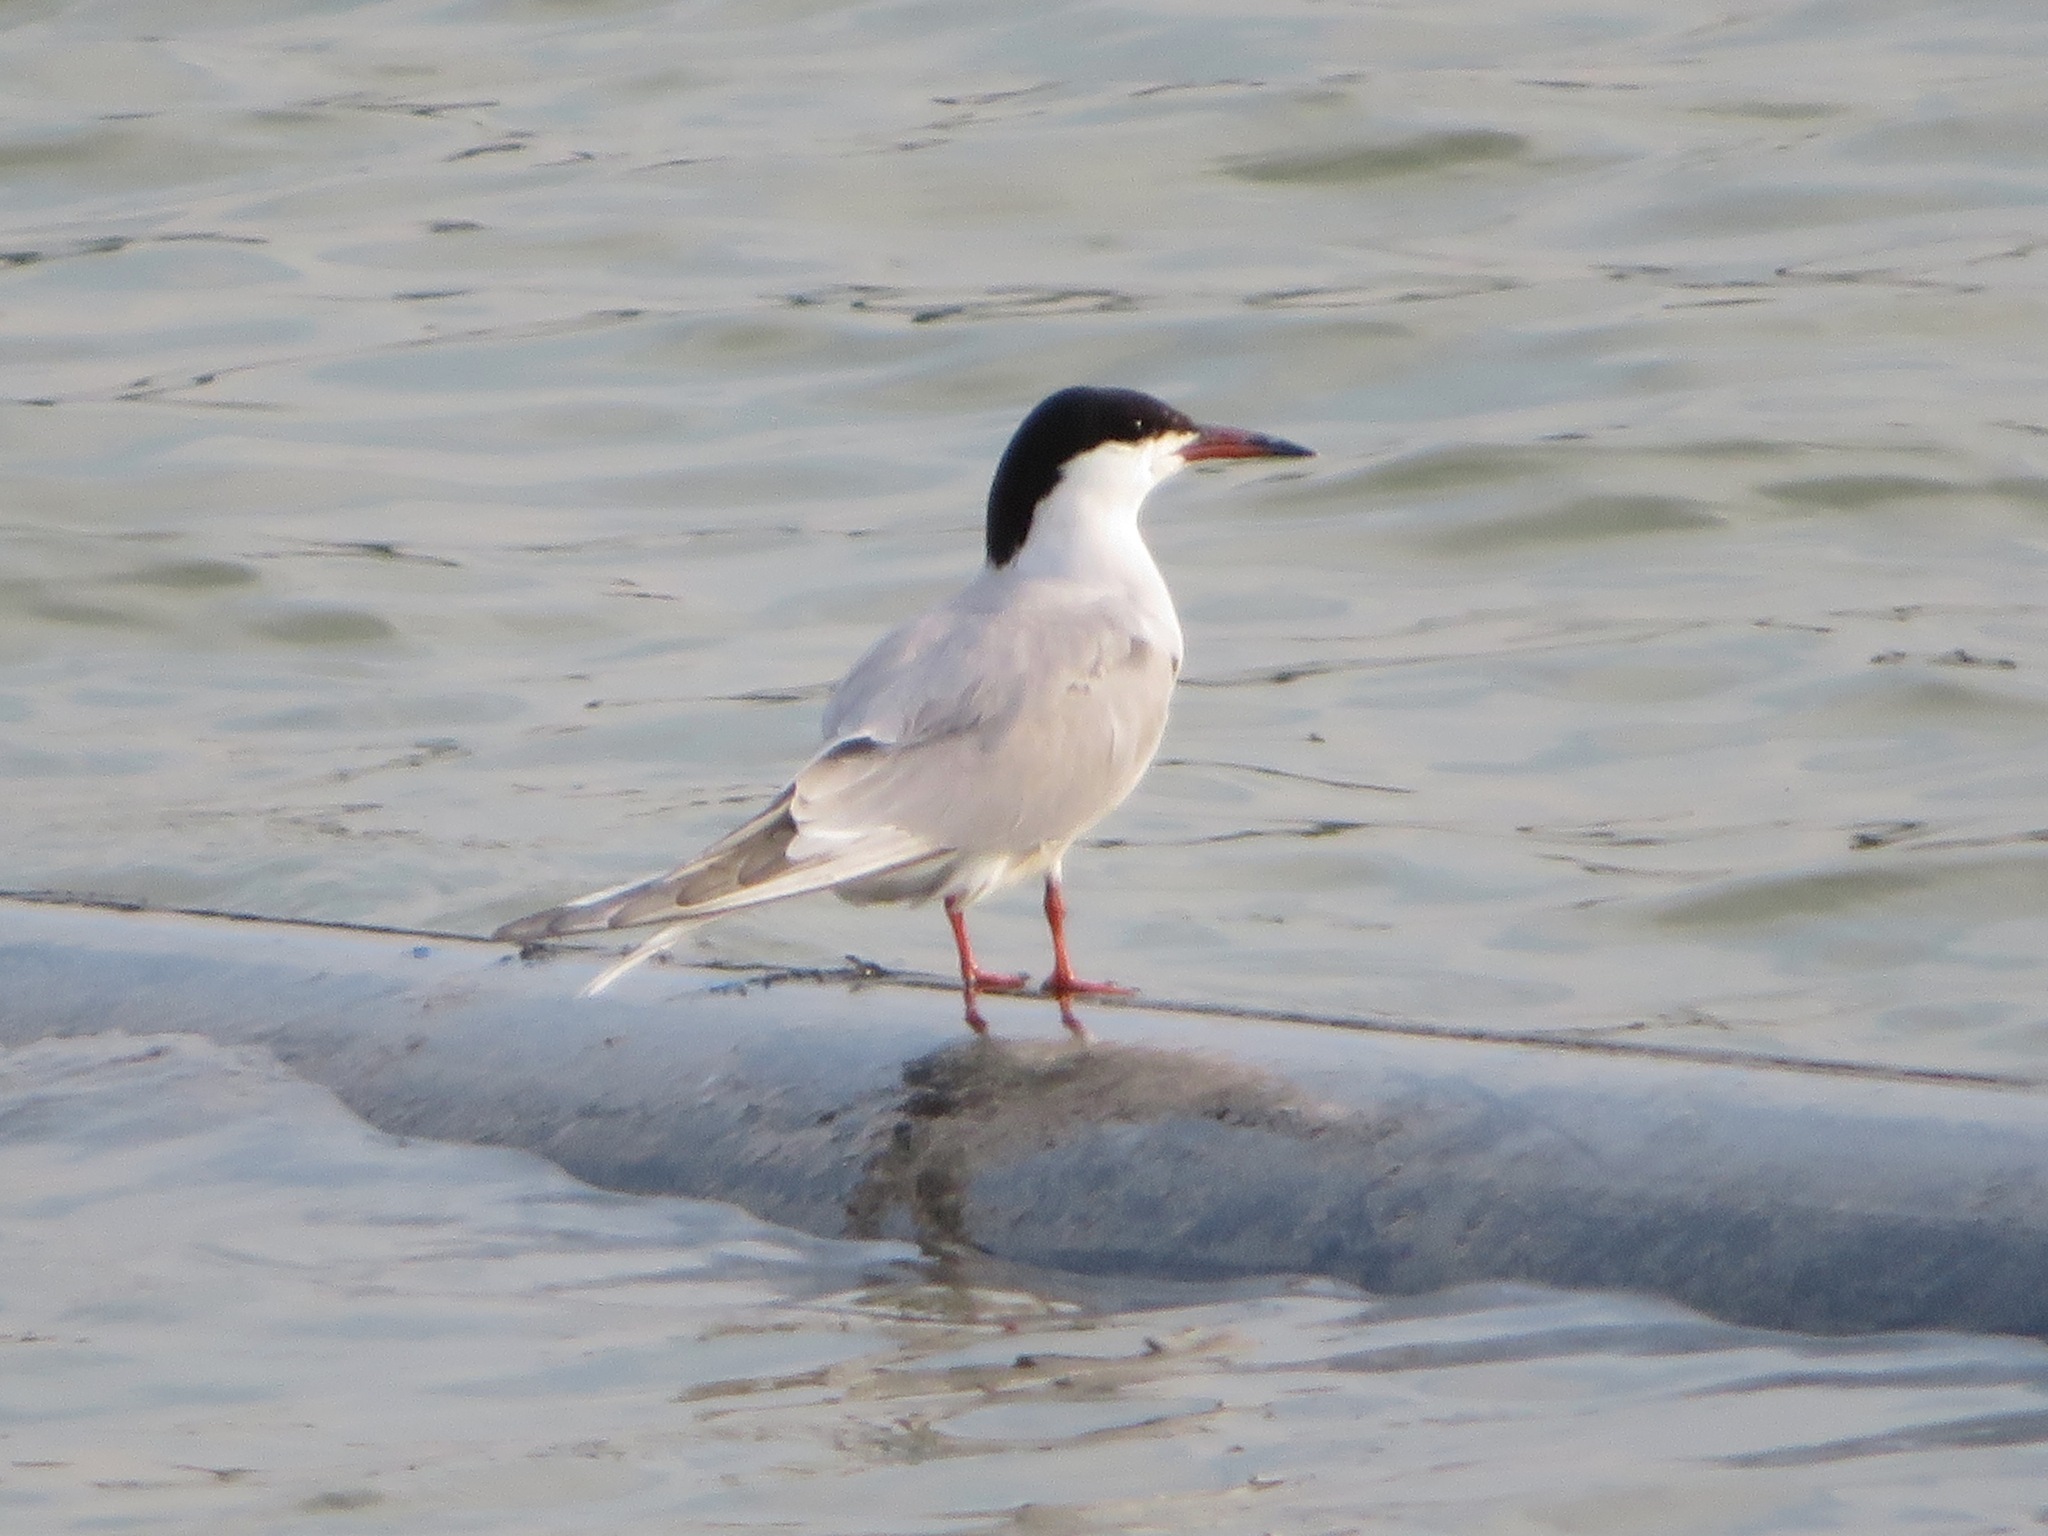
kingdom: Animalia
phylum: Chordata
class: Aves
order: Charadriiformes
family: Laridae
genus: Sterna
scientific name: Sterna hirundo
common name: Common tern
